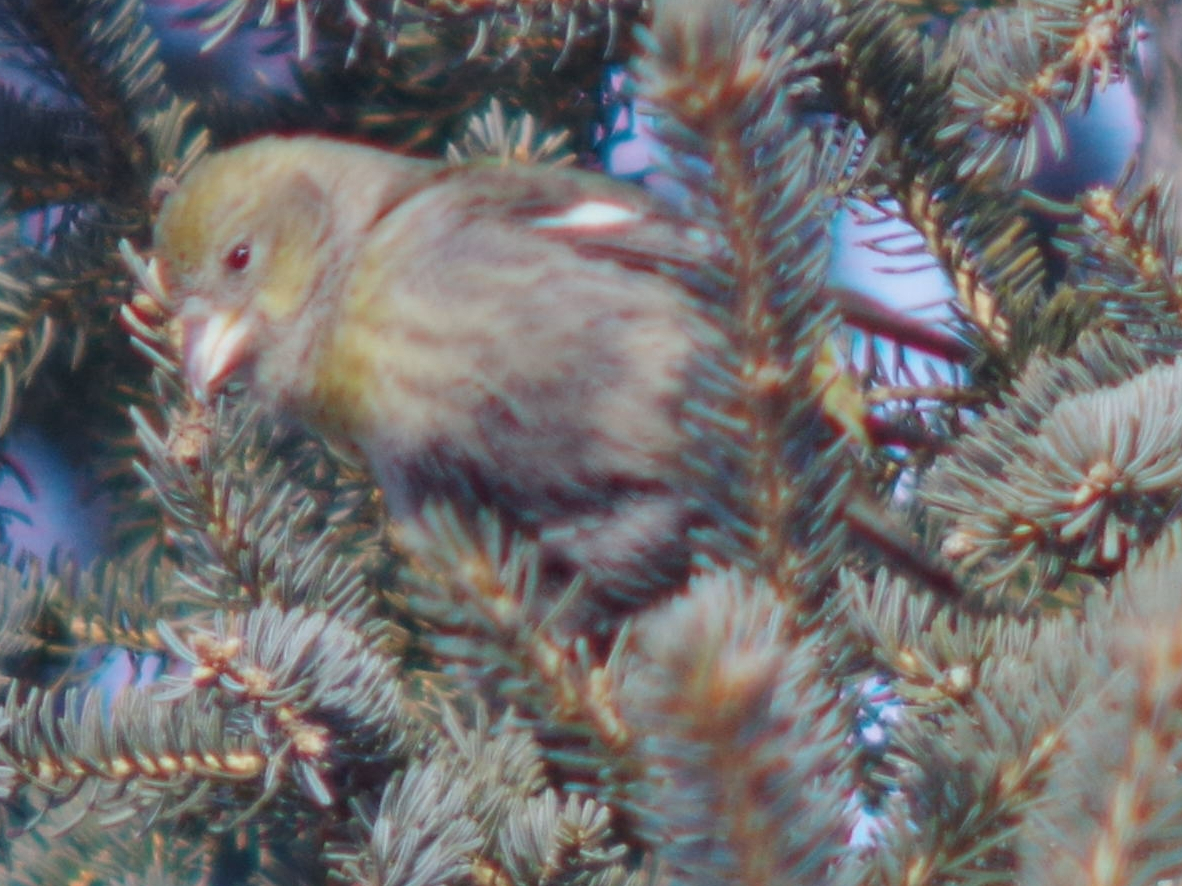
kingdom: Animalia
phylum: Chordata
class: Aves
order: Passeriformes
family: Fringillidae
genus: Loxia
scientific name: Loxia leucoptera
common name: Two-barred crossbill
